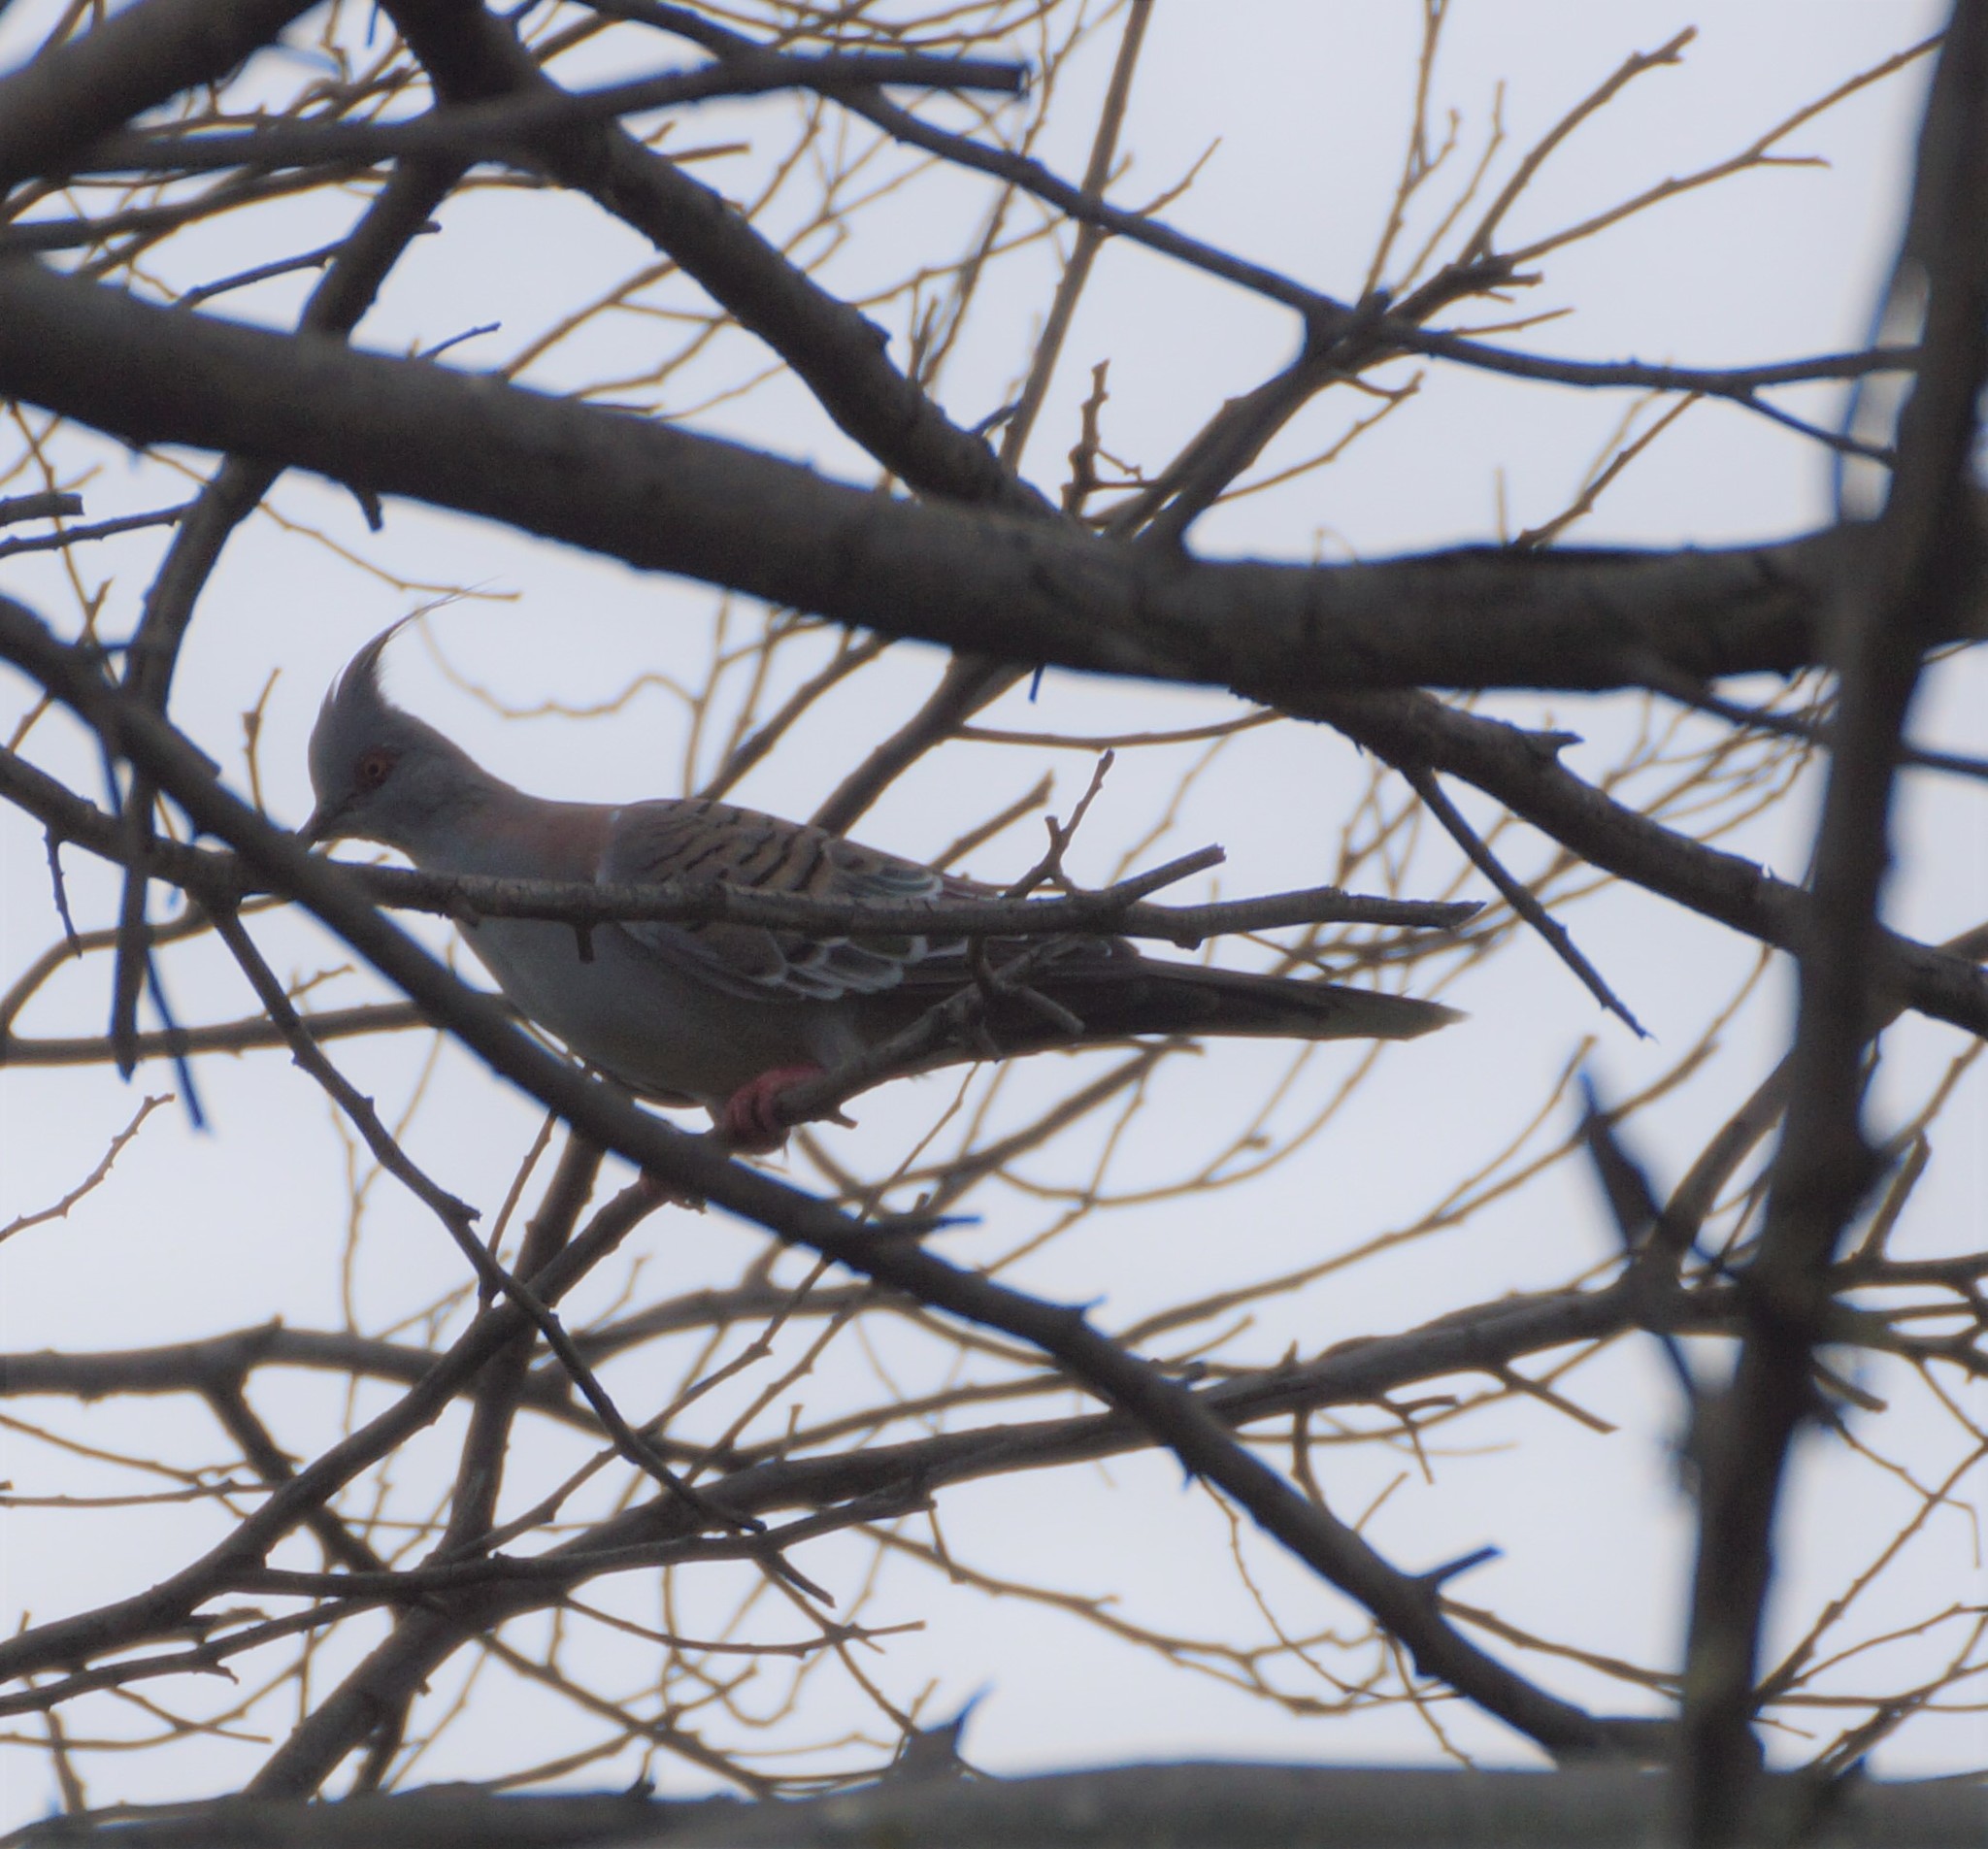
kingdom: Animalia
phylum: Chordata
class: Aves
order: Columbiformes
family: Columbidae
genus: Ocyphaps
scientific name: Ocyphaps lophotes
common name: Crested pigeon
